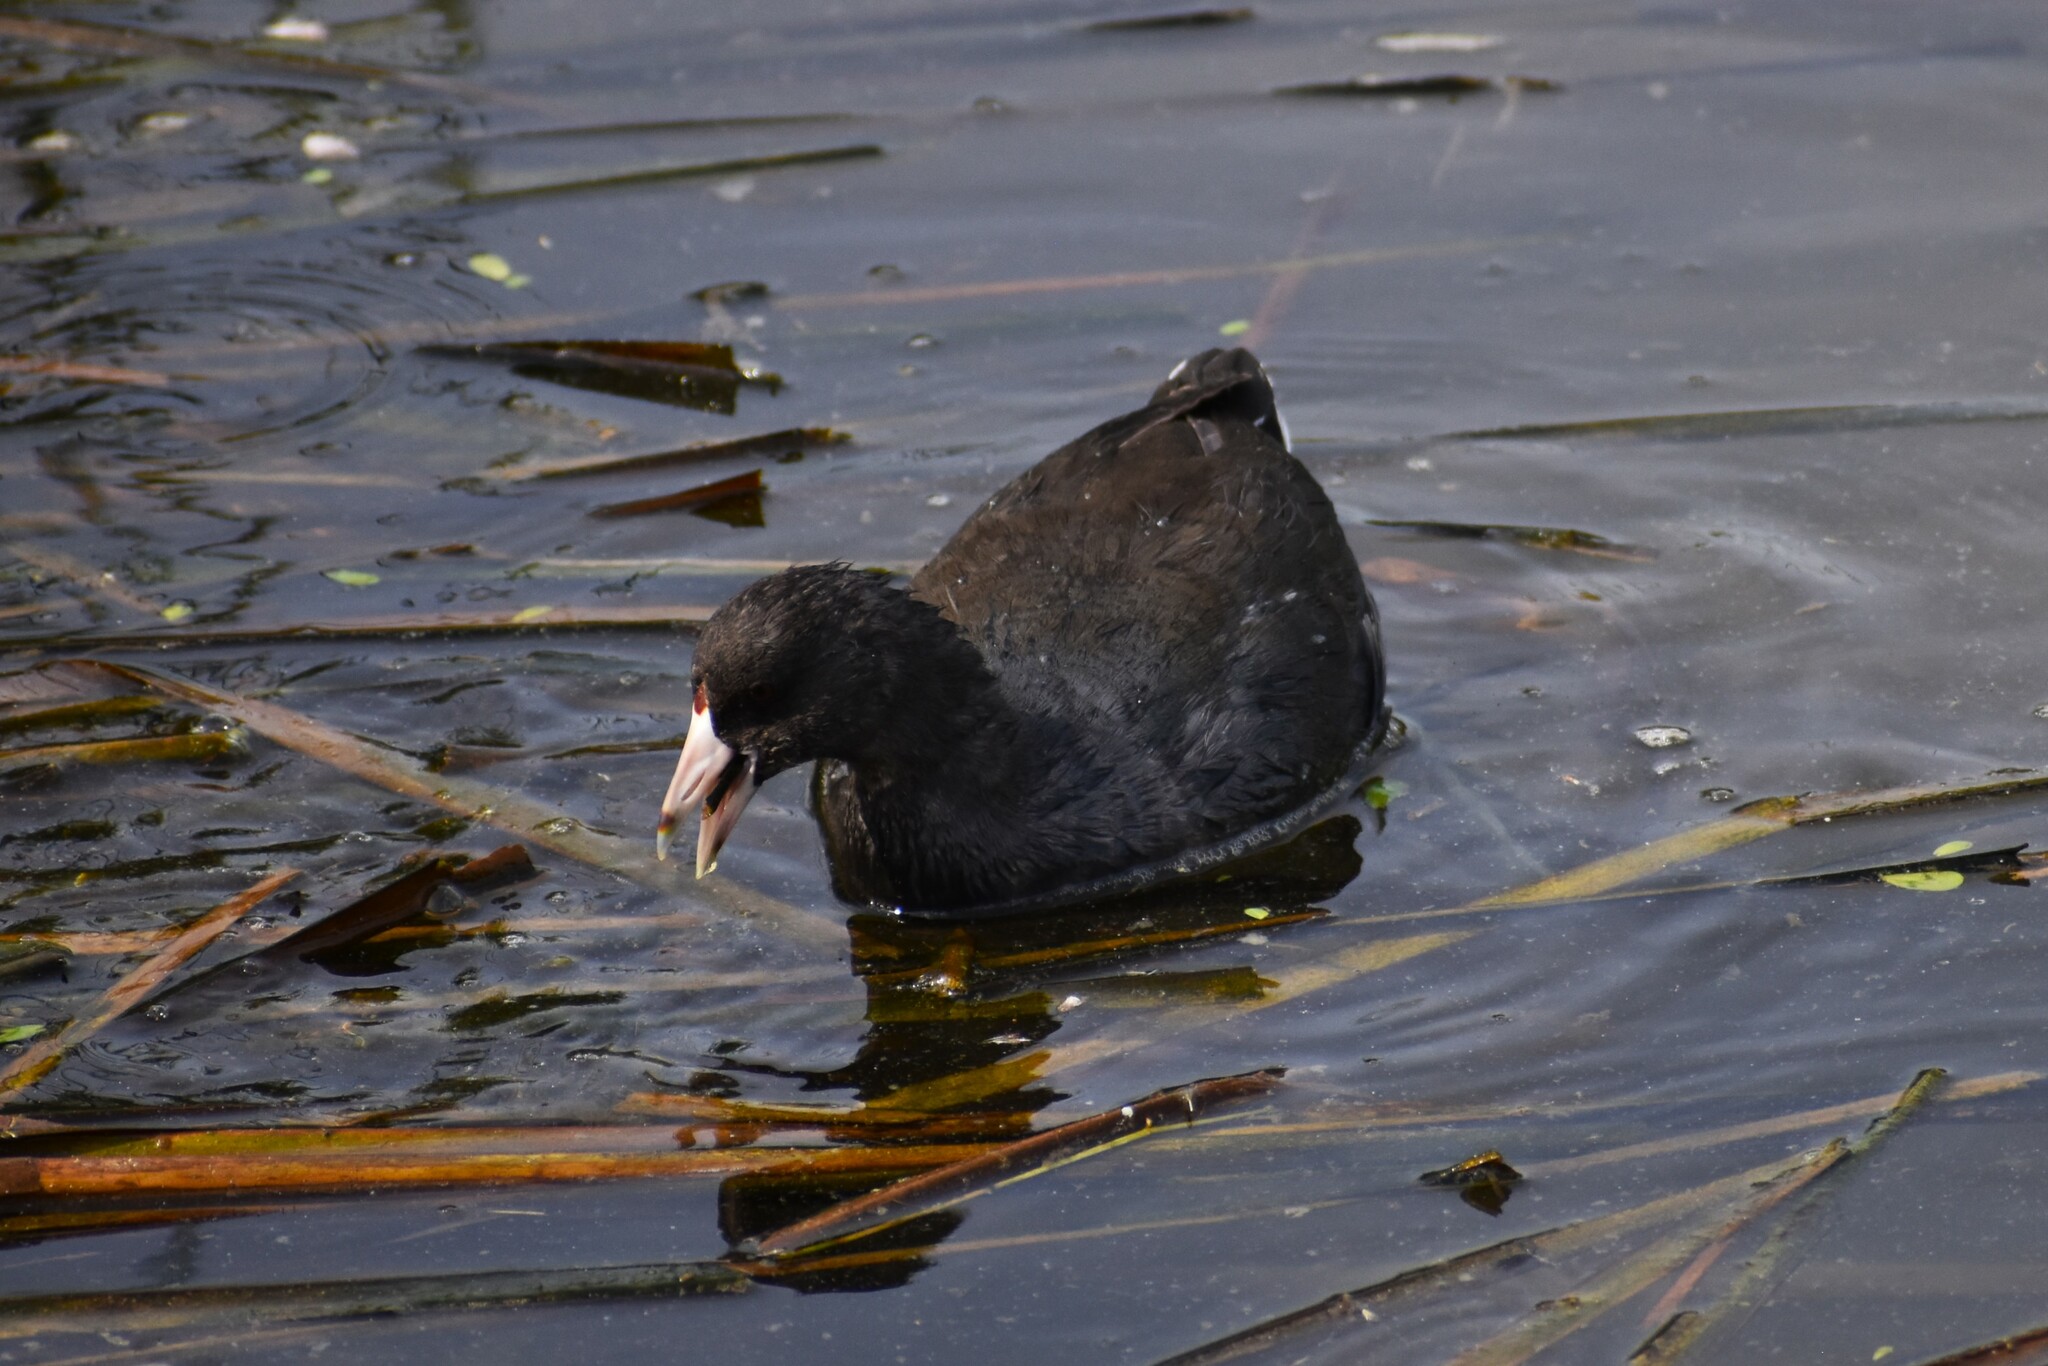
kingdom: Animalia
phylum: Chordata
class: Aves
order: Gruiformes
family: Rallidae
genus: Fulica
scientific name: Fulica americana
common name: American coot
